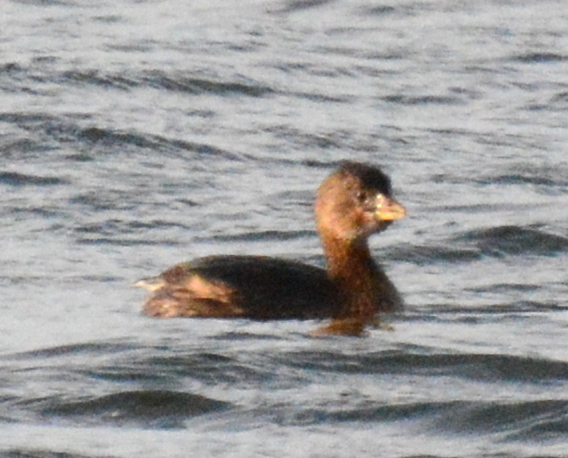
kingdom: Animalia
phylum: Chordata
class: Aves
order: Podicipediformes
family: Podicipedidae
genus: Podilymbus
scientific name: Podilymbus podiceps
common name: Pied-billed grebe
